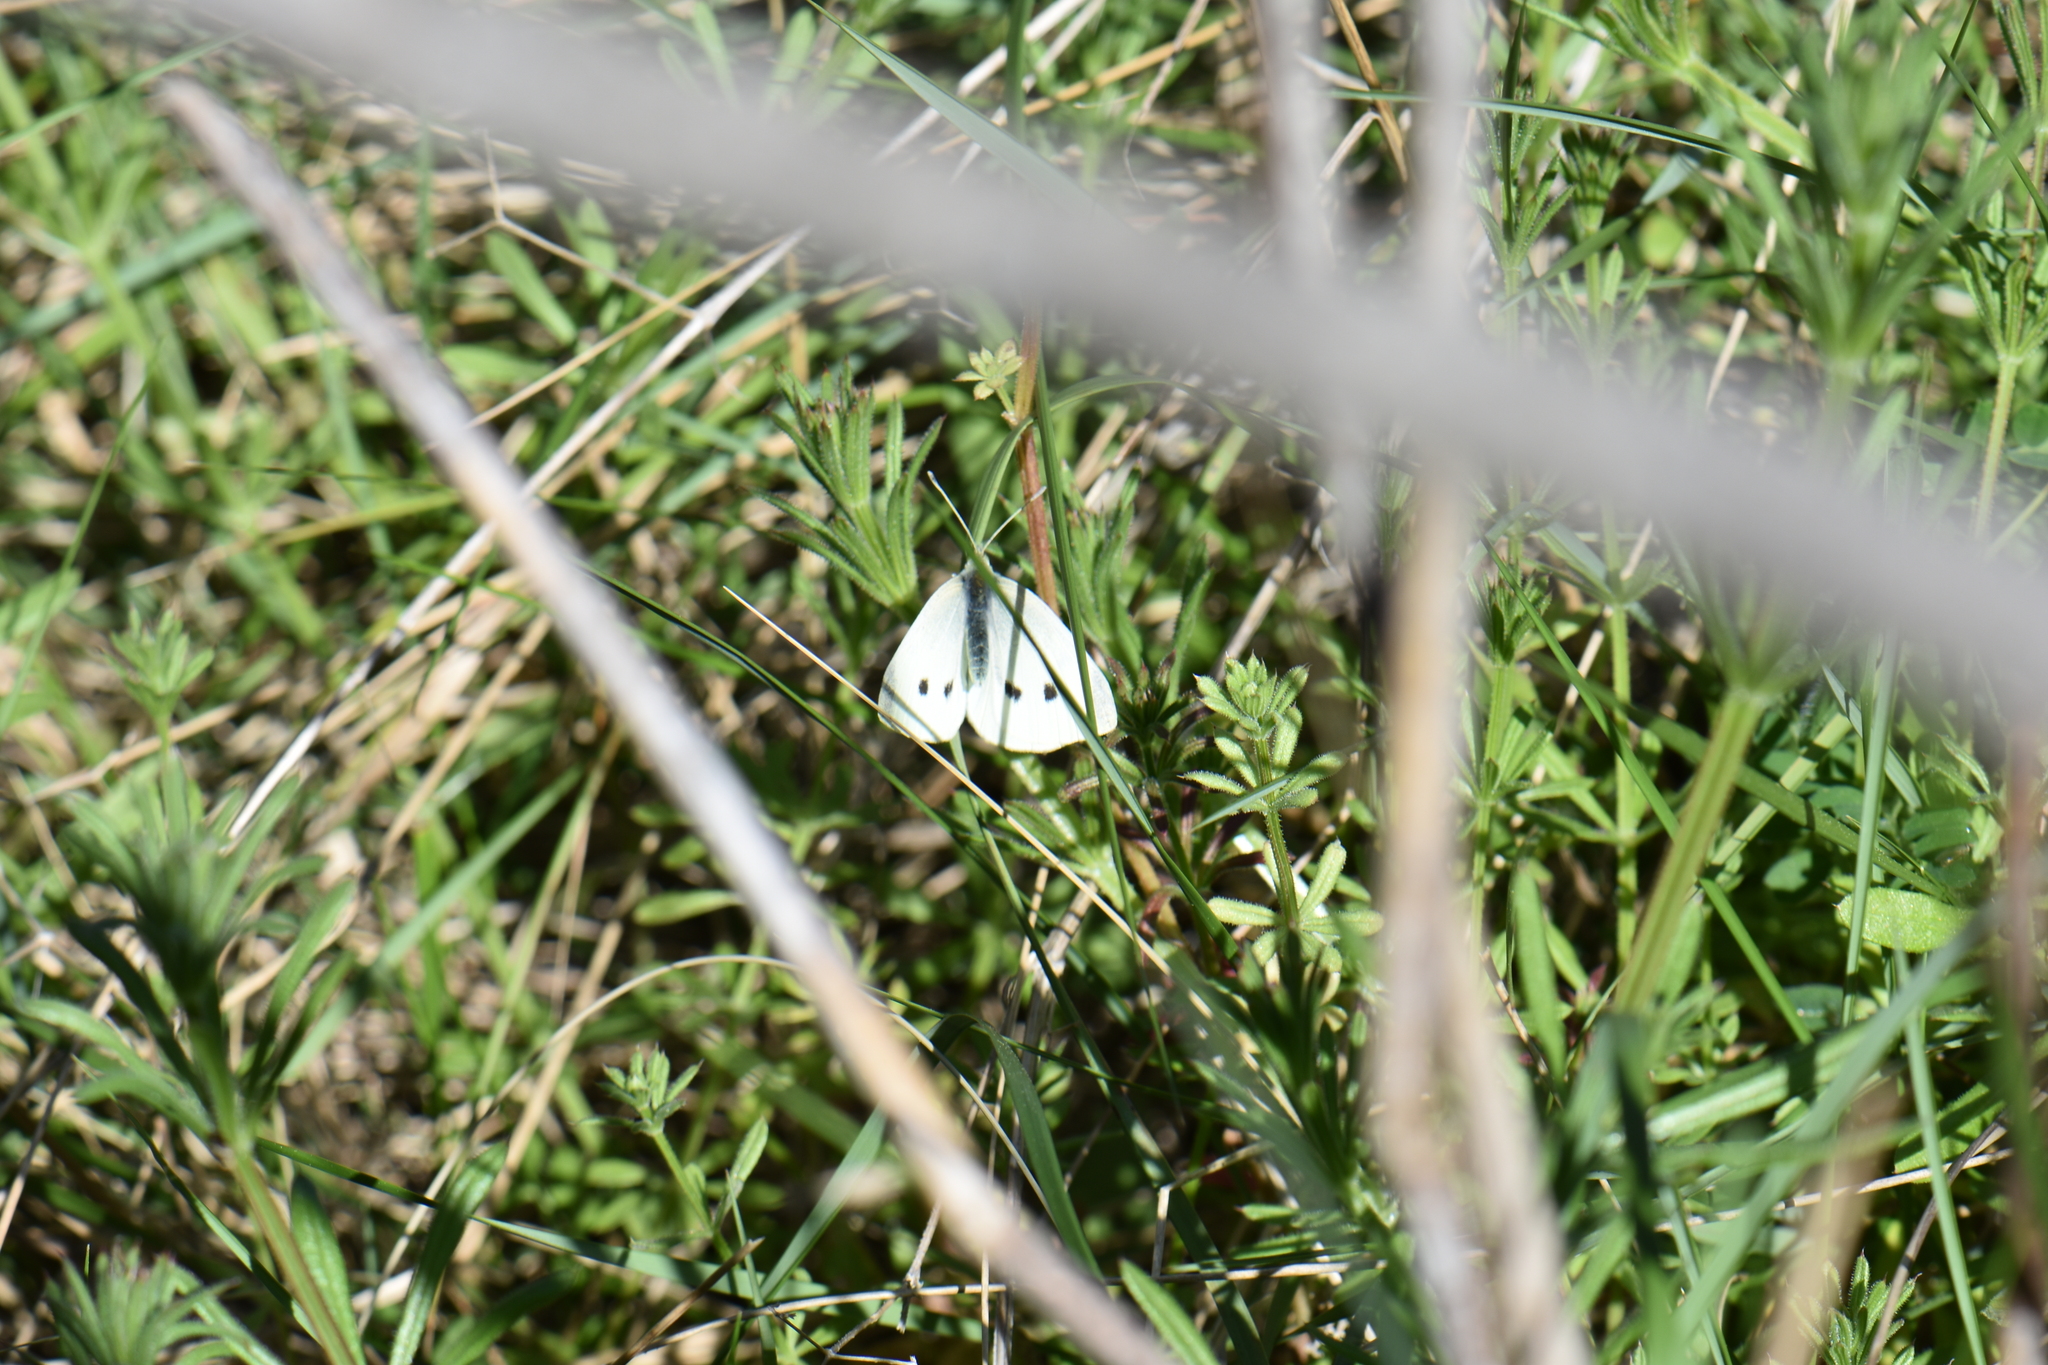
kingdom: Animalia
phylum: Arthropoda
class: Insecta
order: Lepidoptera
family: Pieridae
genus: Pieris
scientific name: Pieris rapae
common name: Small white
